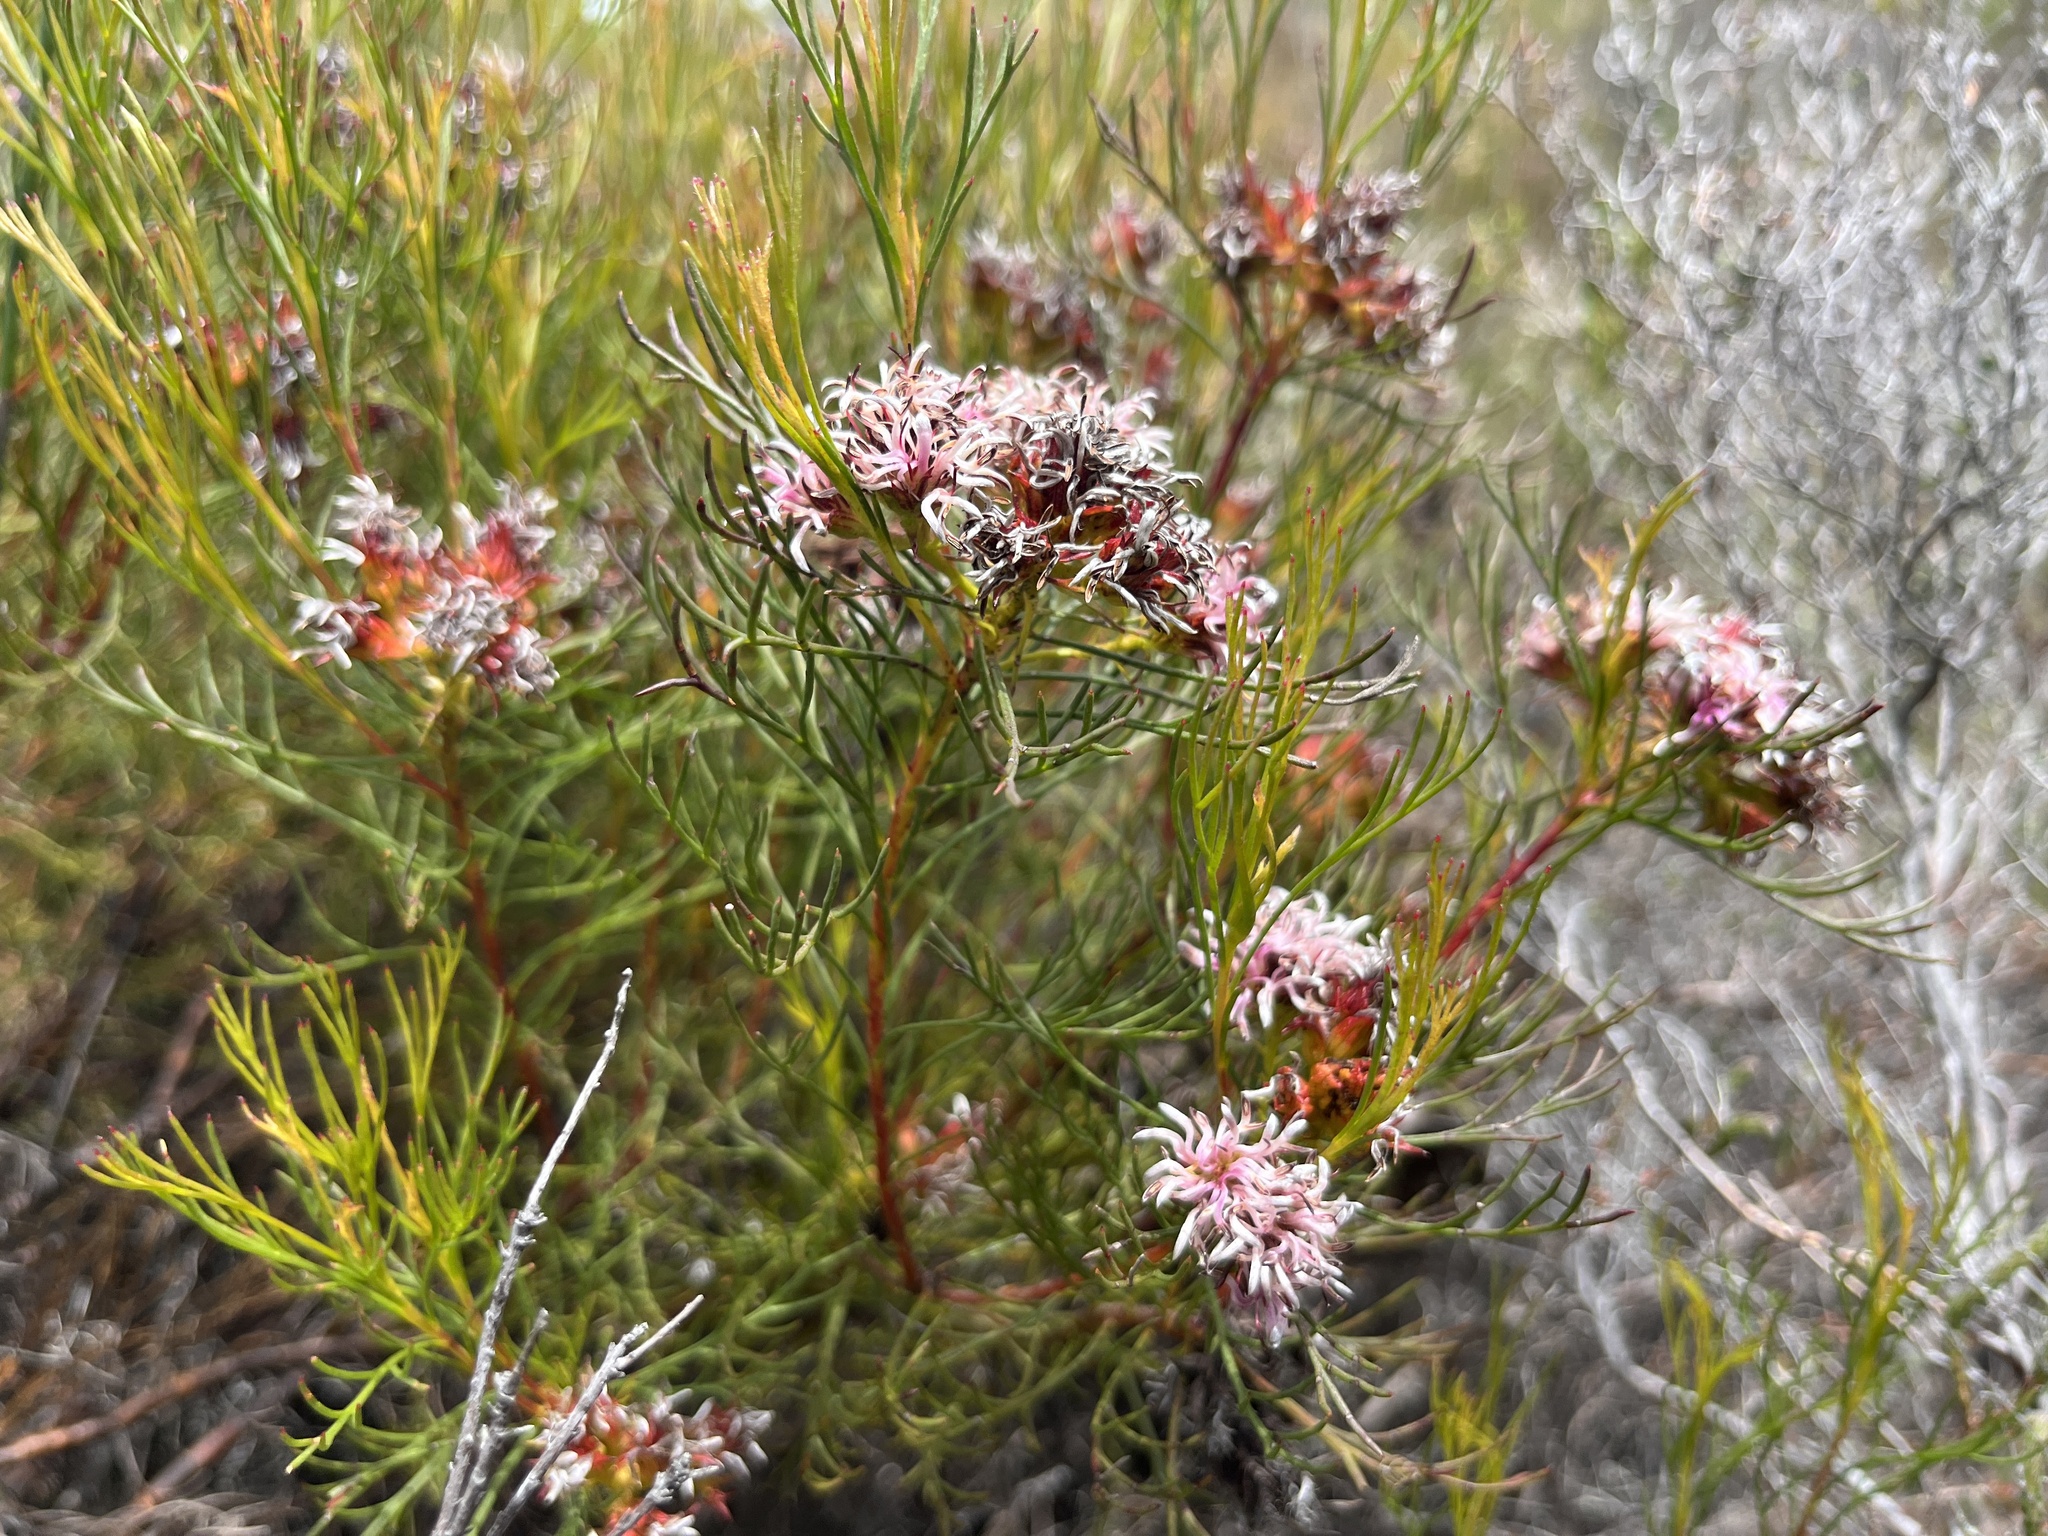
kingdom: Plantae
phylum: Tracheophyta
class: Magnoliopsida
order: Proteales
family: Proteaceae
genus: Serruria
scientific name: Serruria bolusii
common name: Agulhas spiderhead
